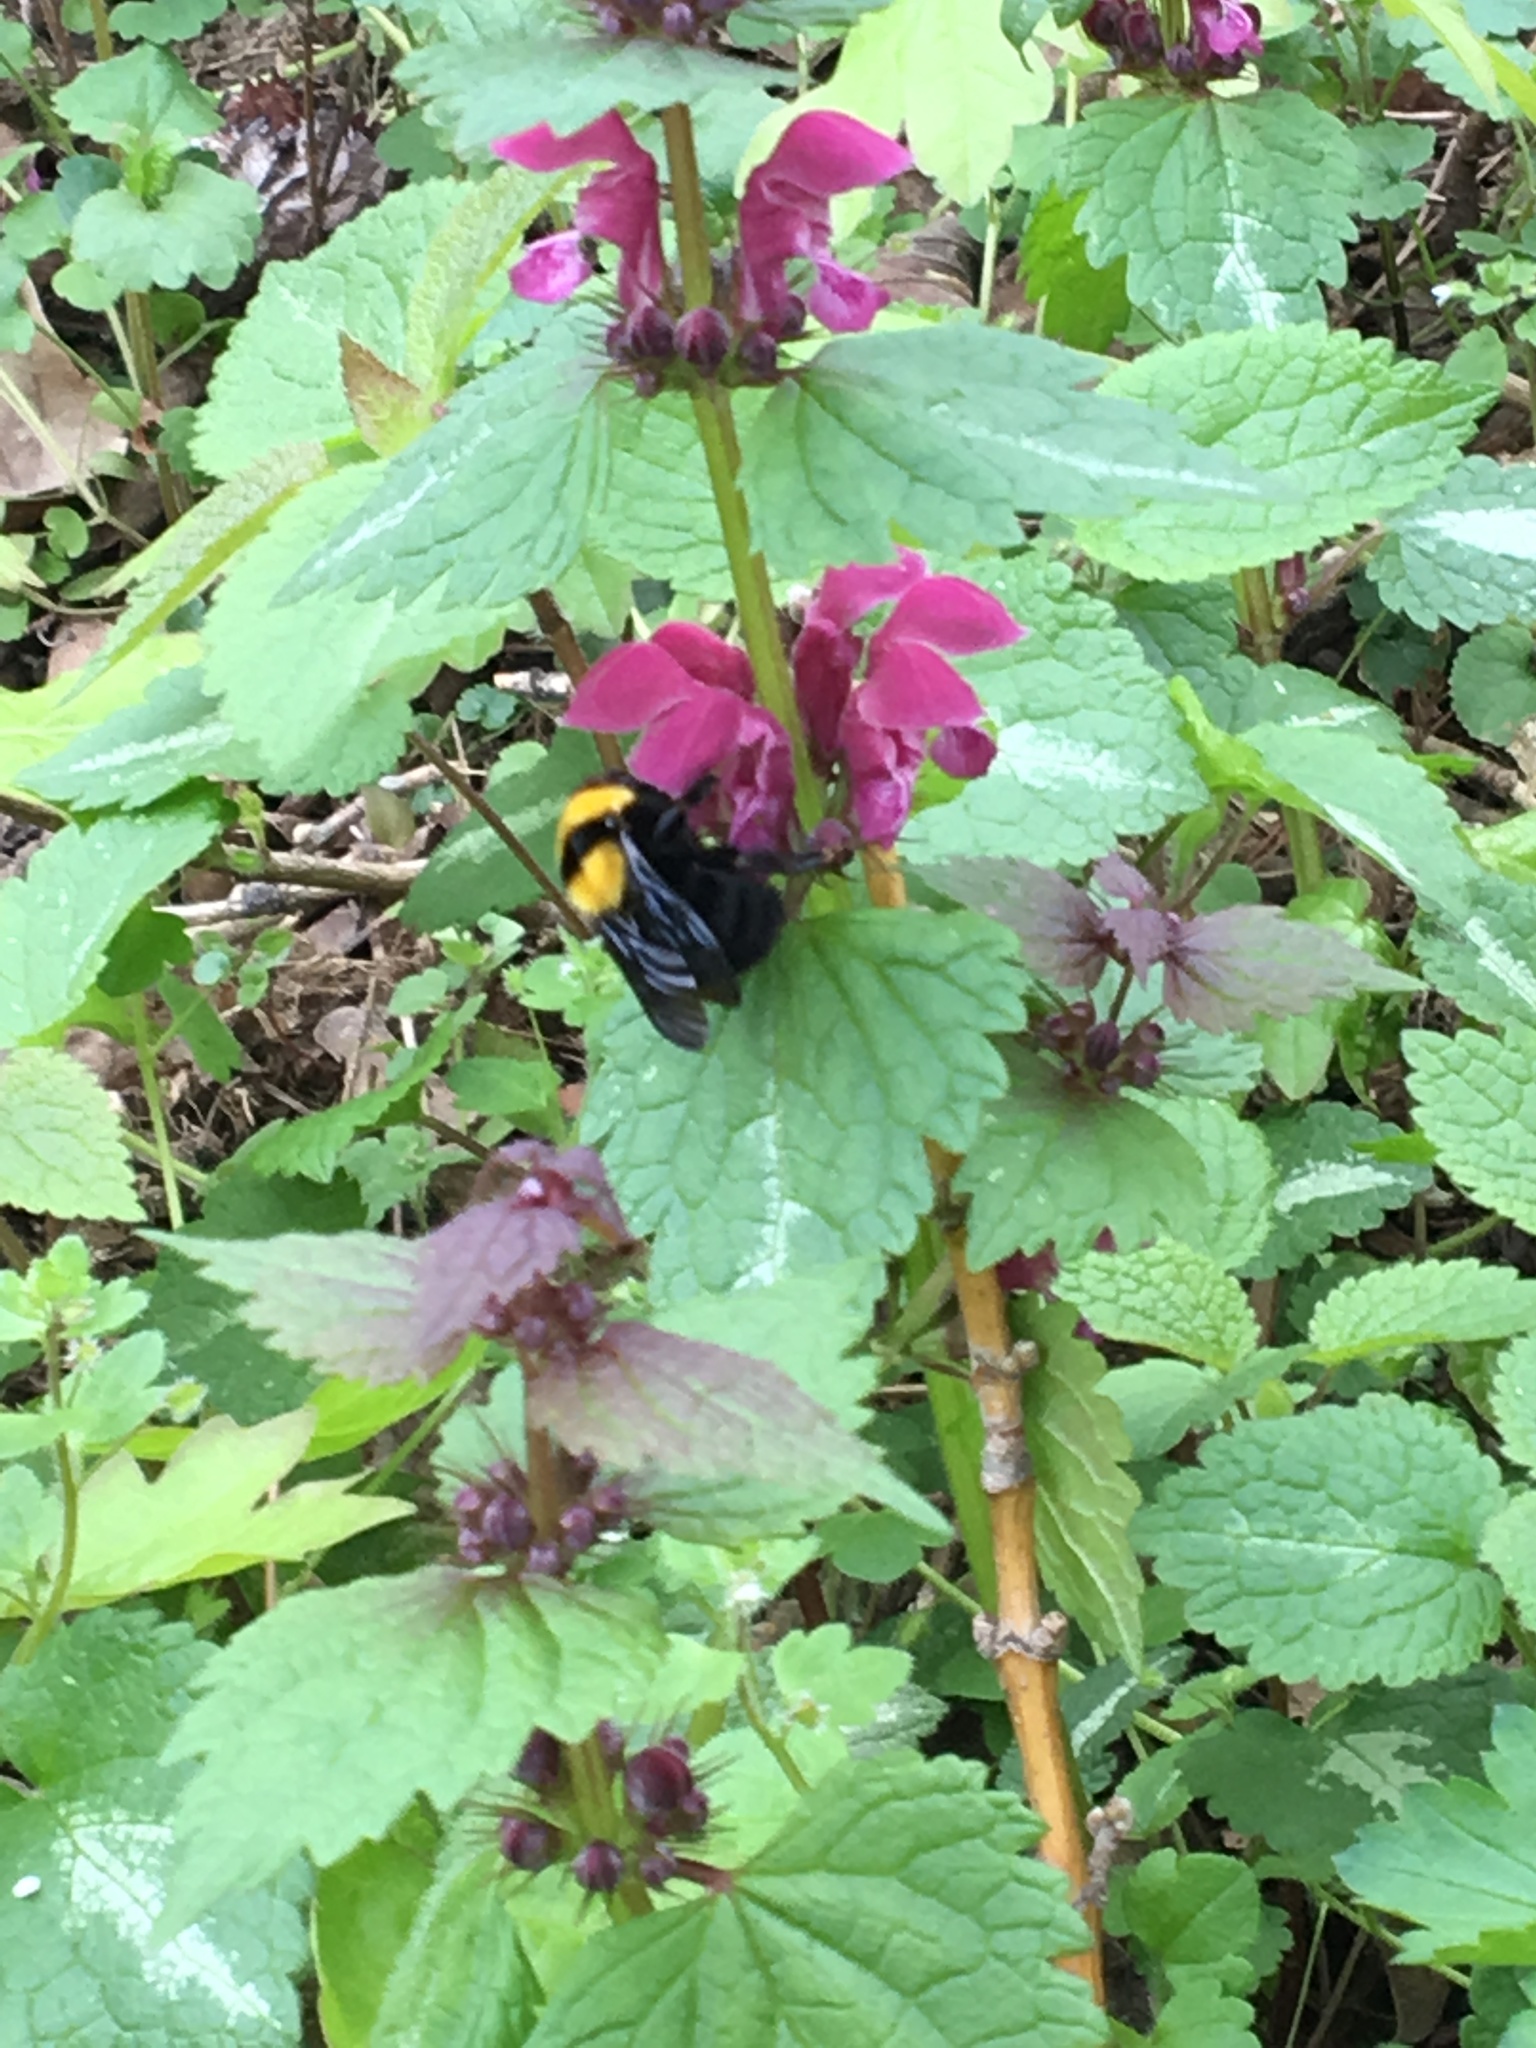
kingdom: Animalia
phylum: Arthropoda
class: Insecta
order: Hymenoptera
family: Apidae
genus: Bombus
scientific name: Bombus argillaceus
